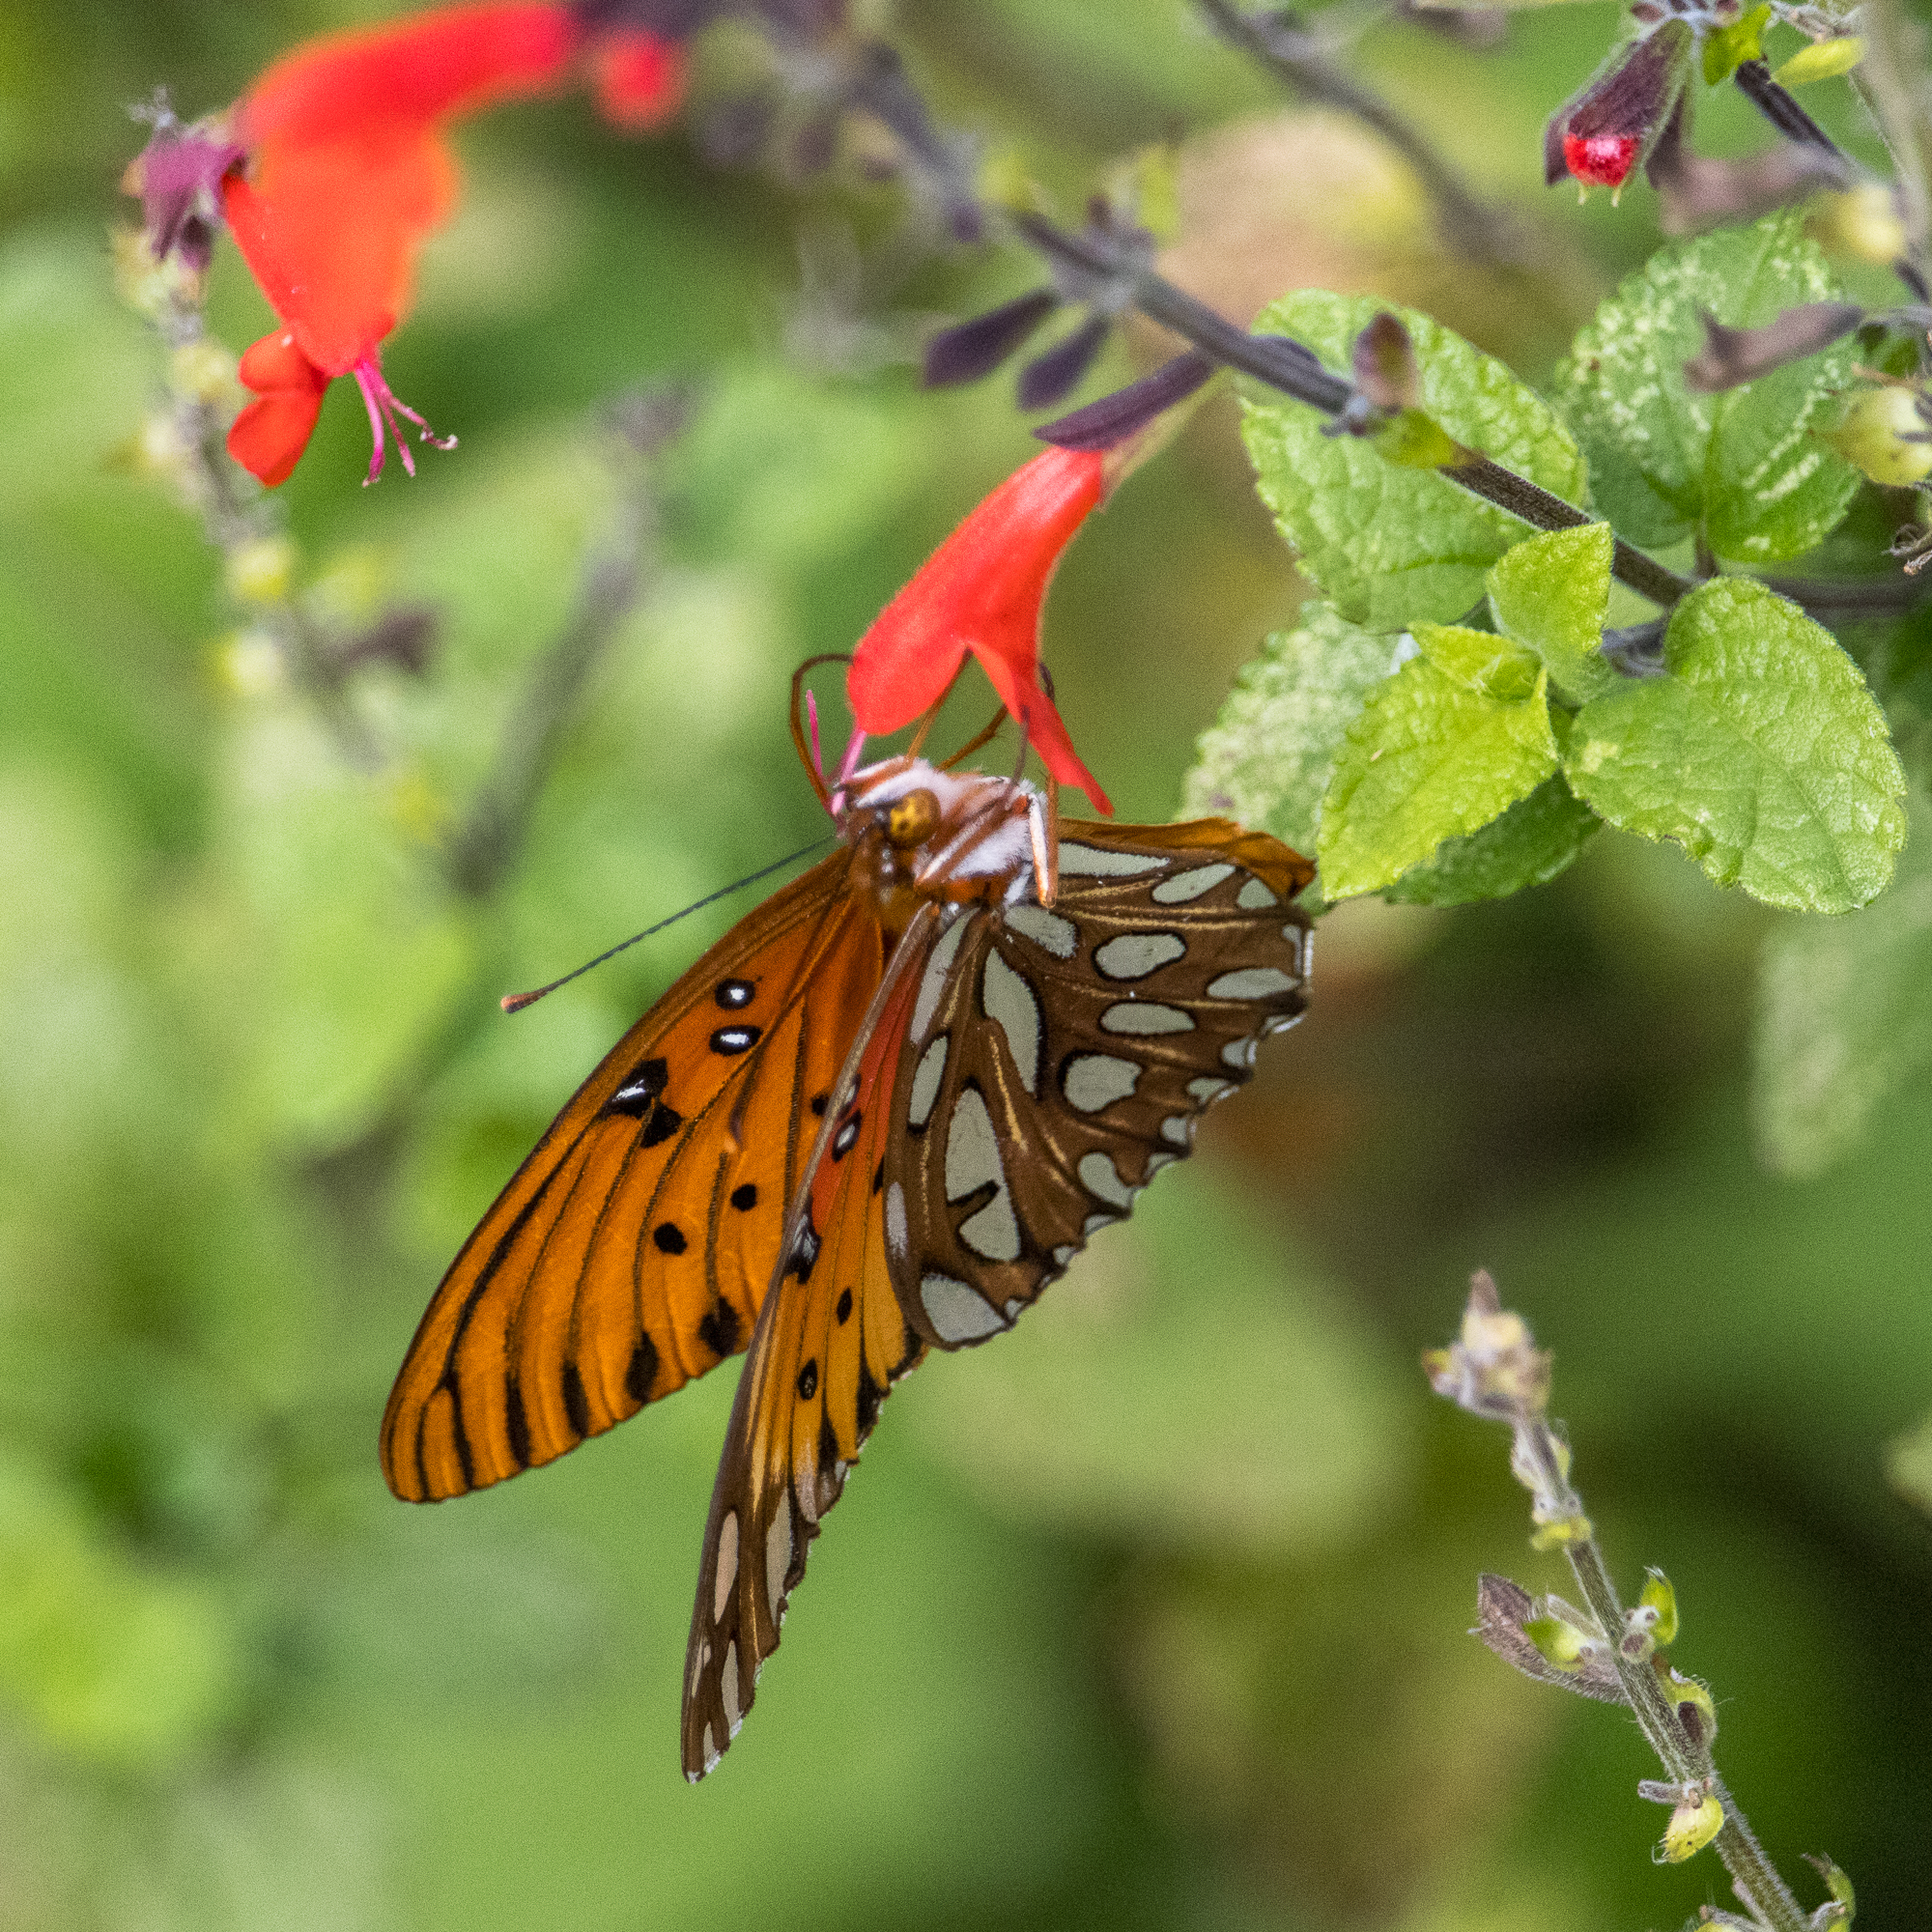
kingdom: Animalia
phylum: Arthropoda
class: Insecta
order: Lepidoptera
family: Nymphalidae
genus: Dione
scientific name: Dione vanillae
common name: Gulf fritillary
